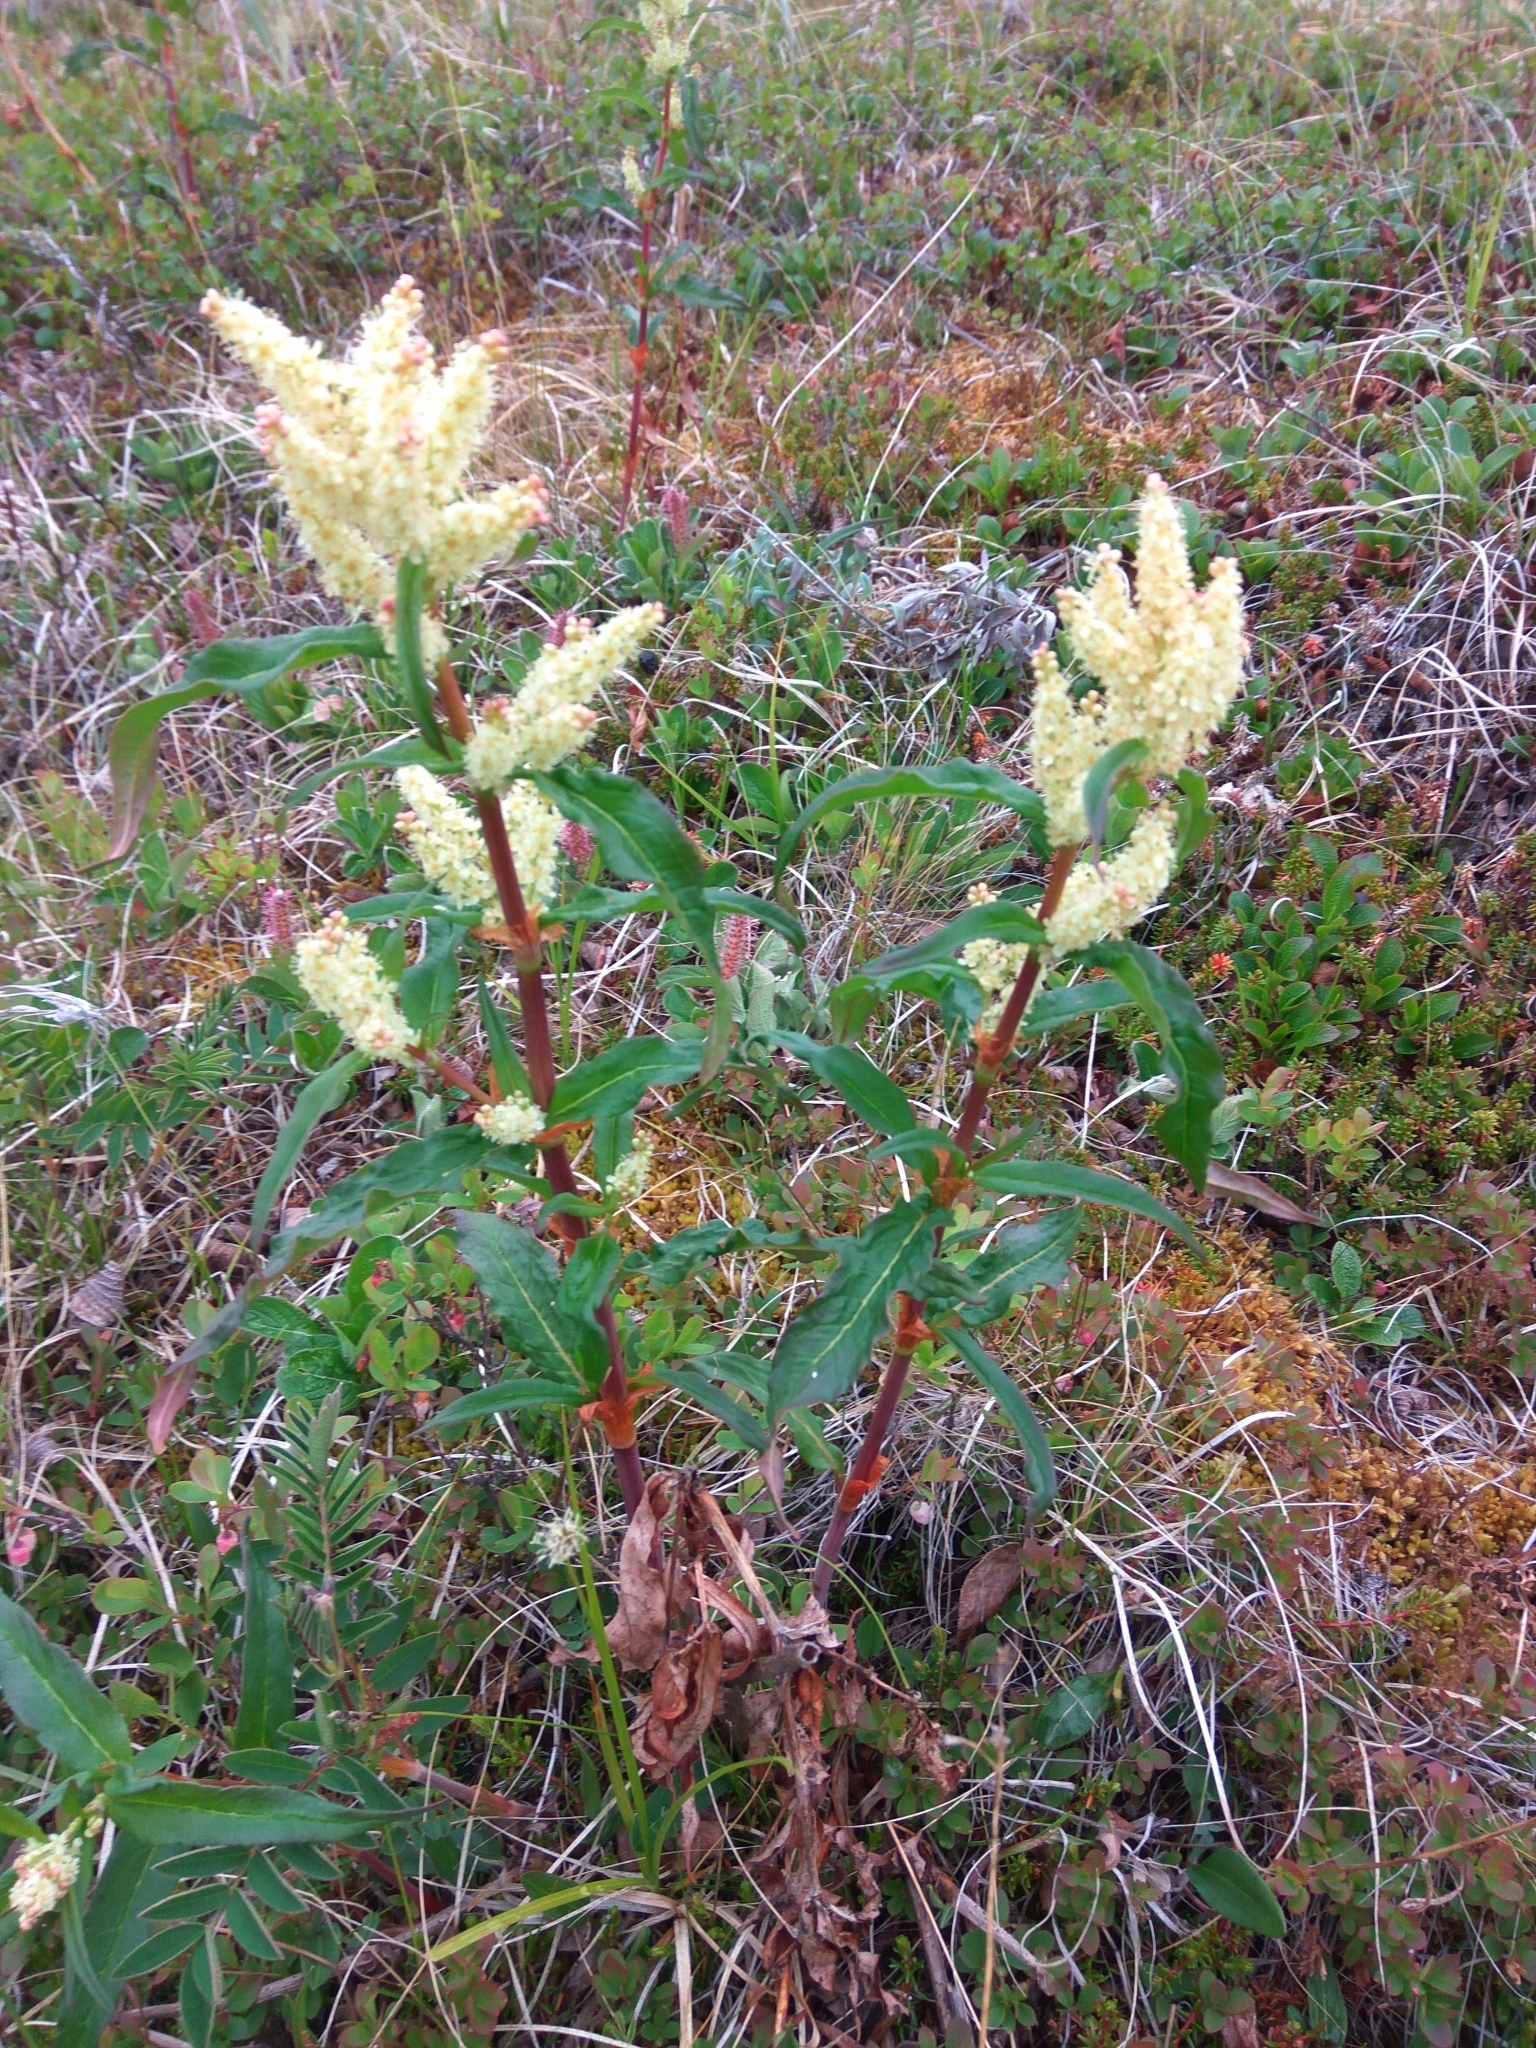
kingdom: Plantae
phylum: Tracheophyta
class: Magnoliopsida
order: Caryophyllales
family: Polygonaceae
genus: Koenigia
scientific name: Koenigia tripterocarpa
